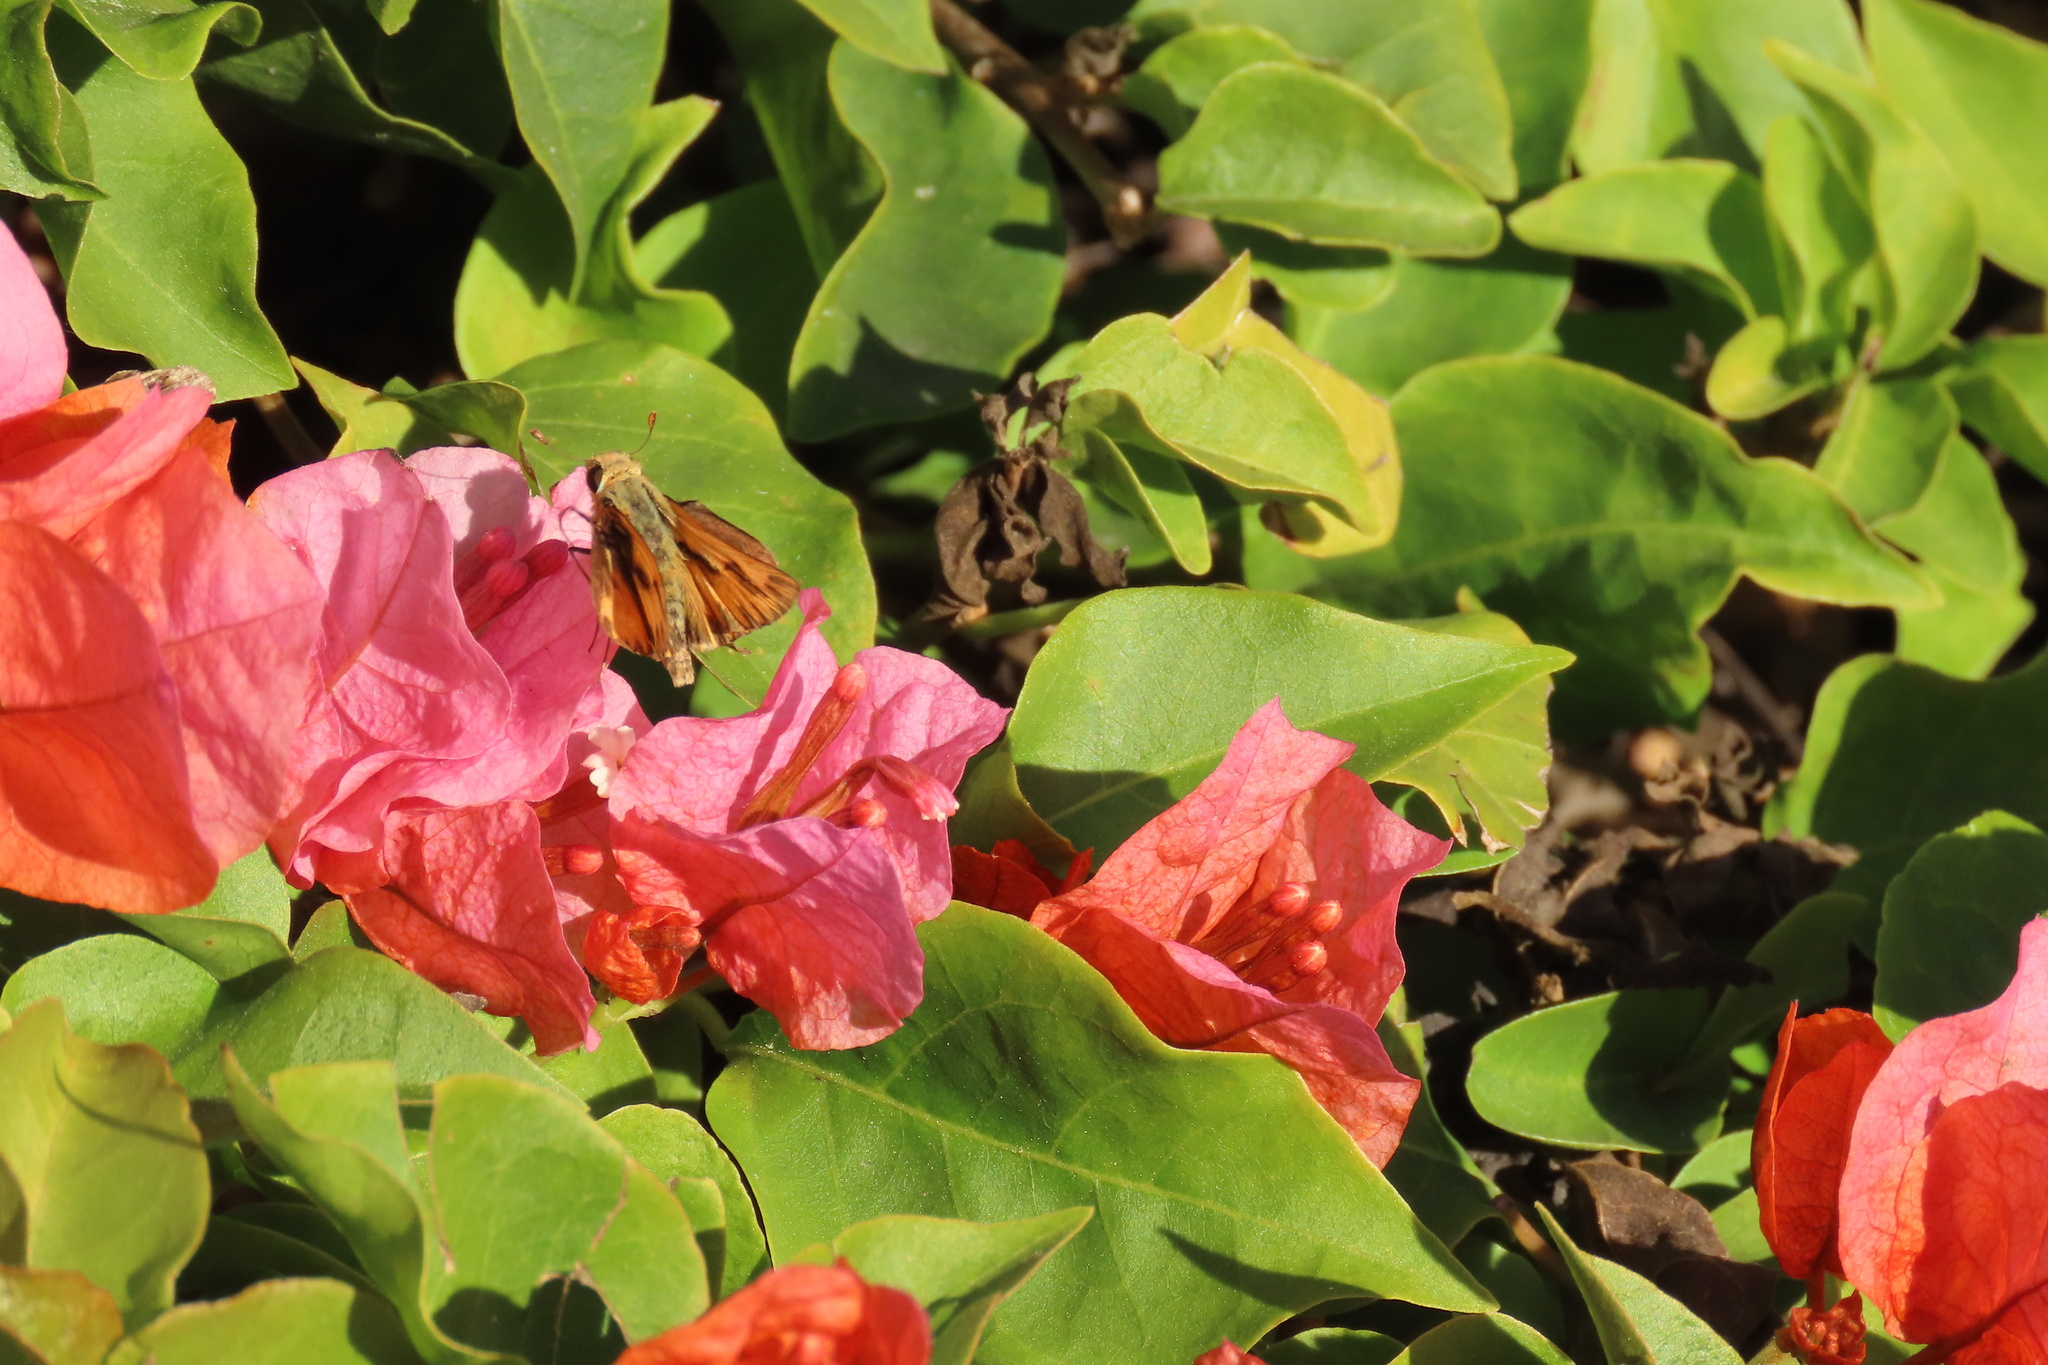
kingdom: Animalia
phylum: Arthropoda
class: Insecta
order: Lepidoptera
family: Hesperiidae
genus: Hylephila
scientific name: Hylephila phyleus
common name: Fiery skipper
